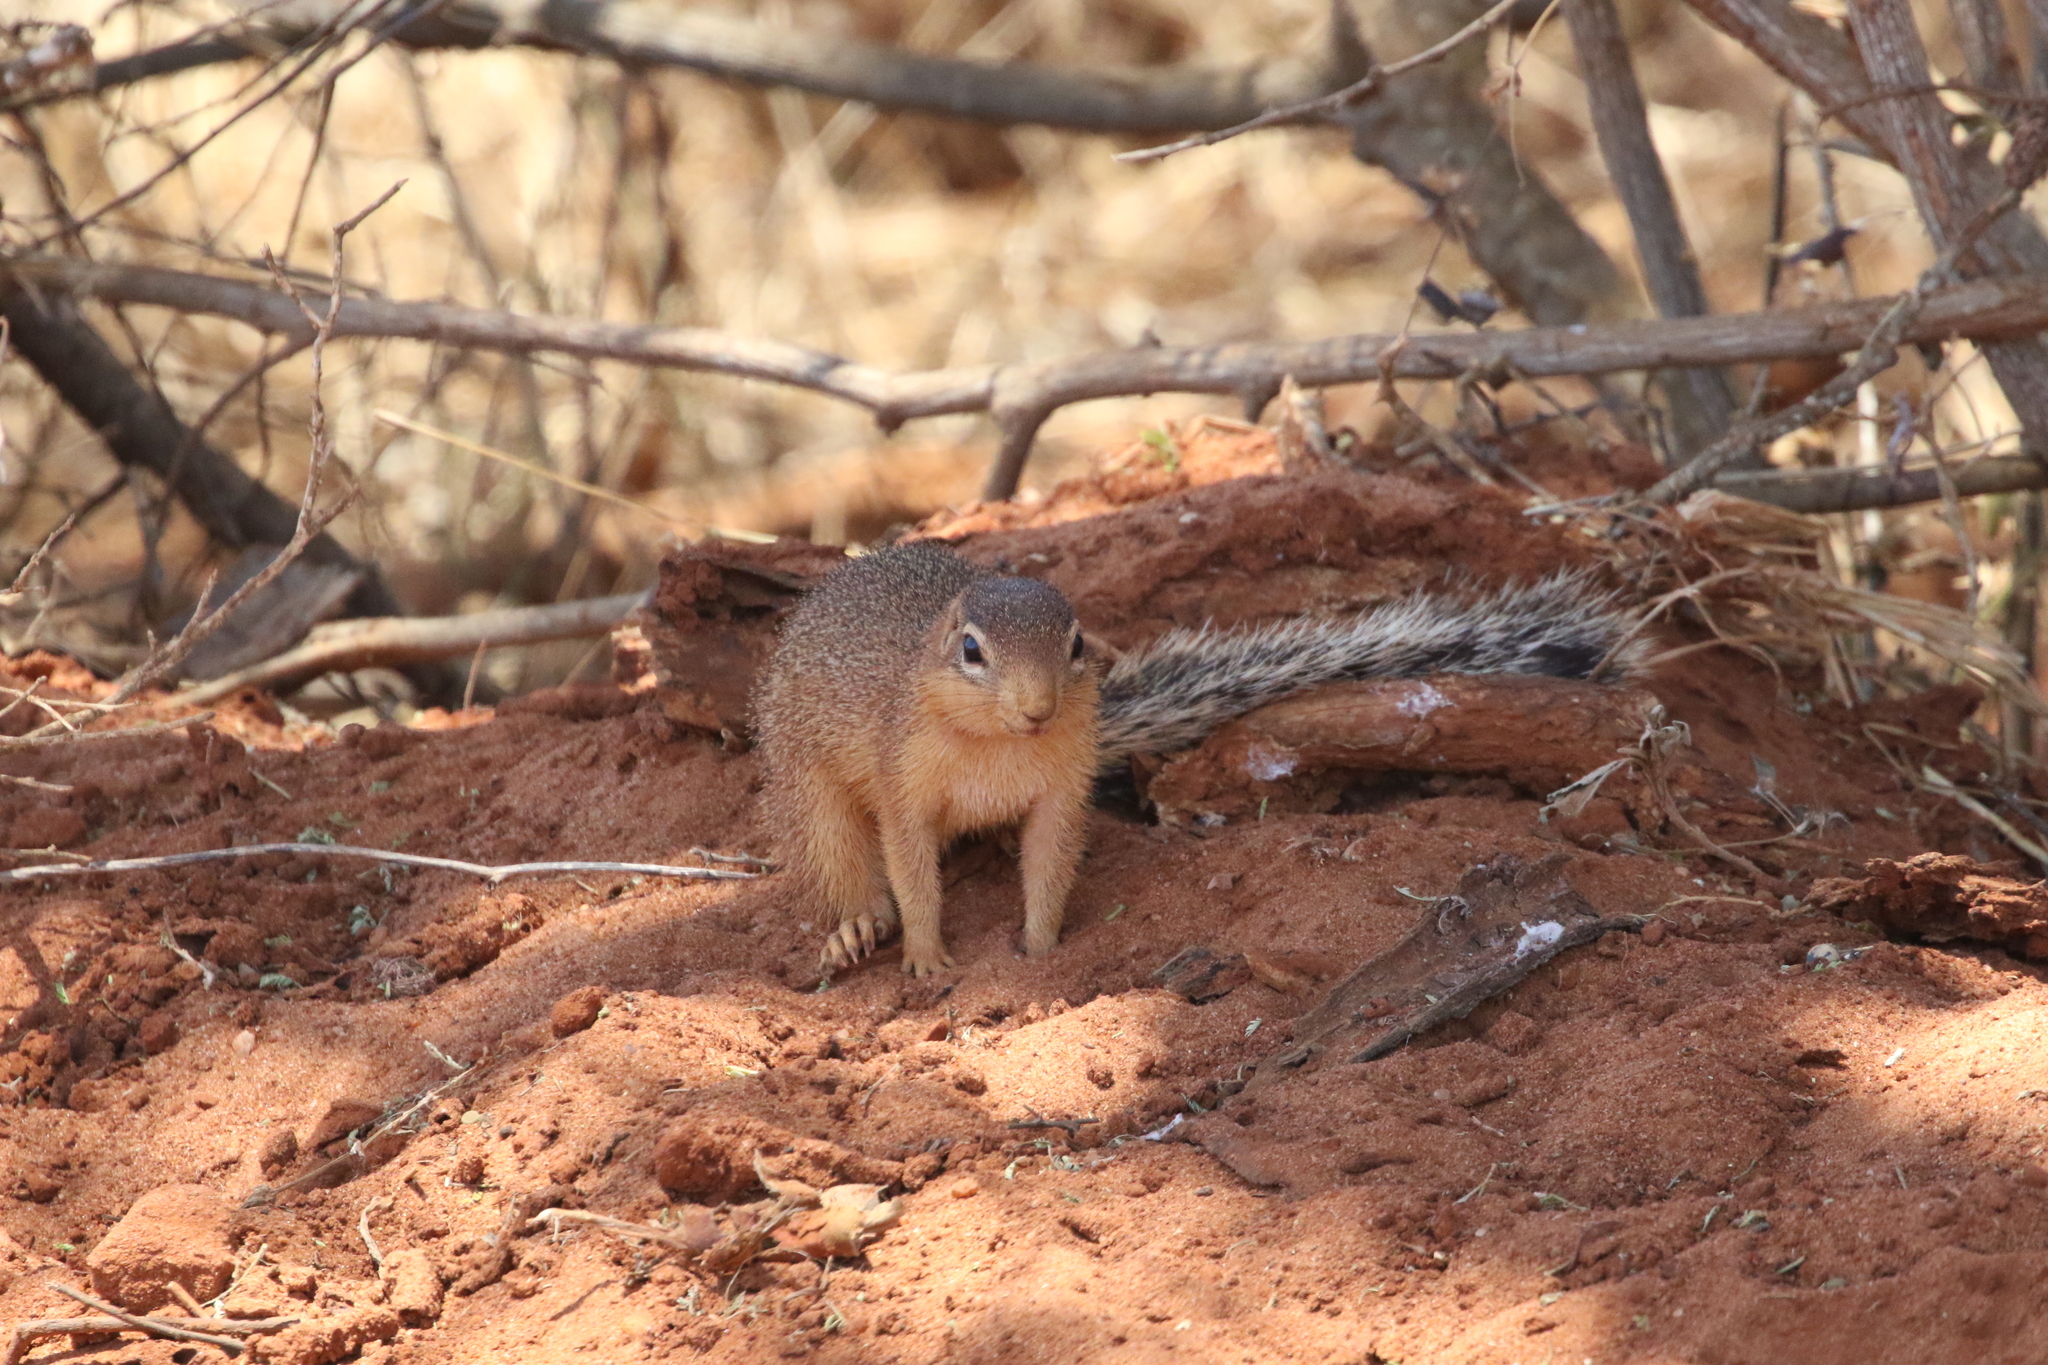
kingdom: Animalia
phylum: Chordata
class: Mammalia
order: Rodentia
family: Sciuridae
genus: Xerus
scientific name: Xerus rutilus
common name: Unstriped ground squirrel
